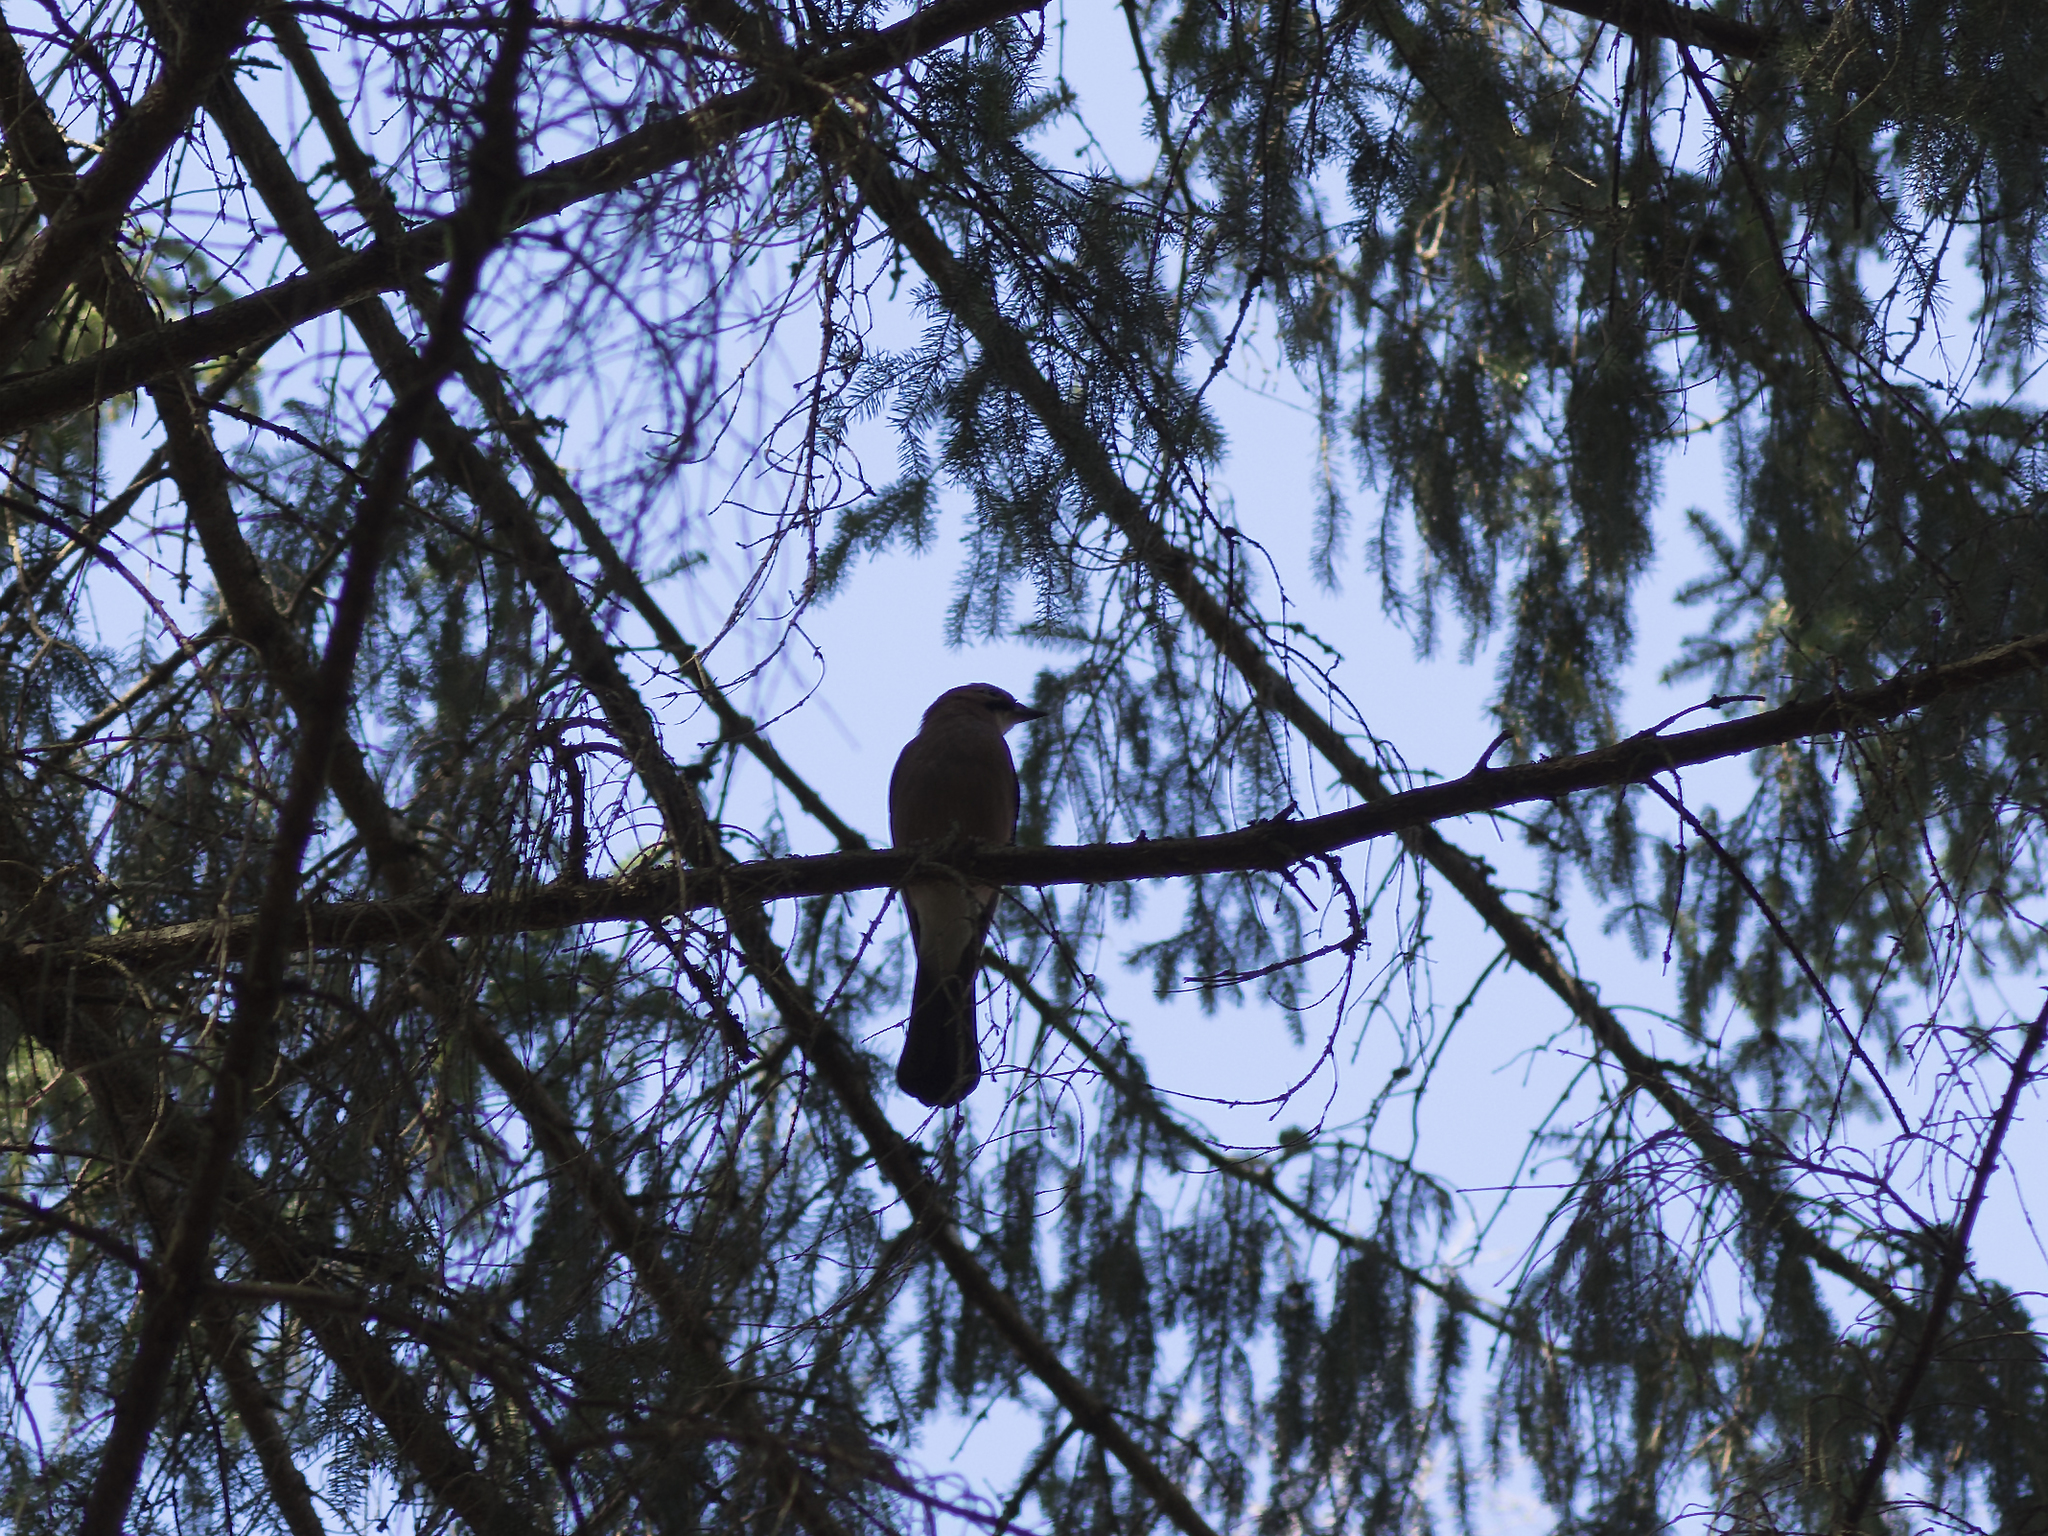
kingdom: Animalia
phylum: Chordata
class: Aves
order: Passeriformes
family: Corvidae
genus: Garrulus
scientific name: Garrulus glandarius
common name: Eurasian jay
